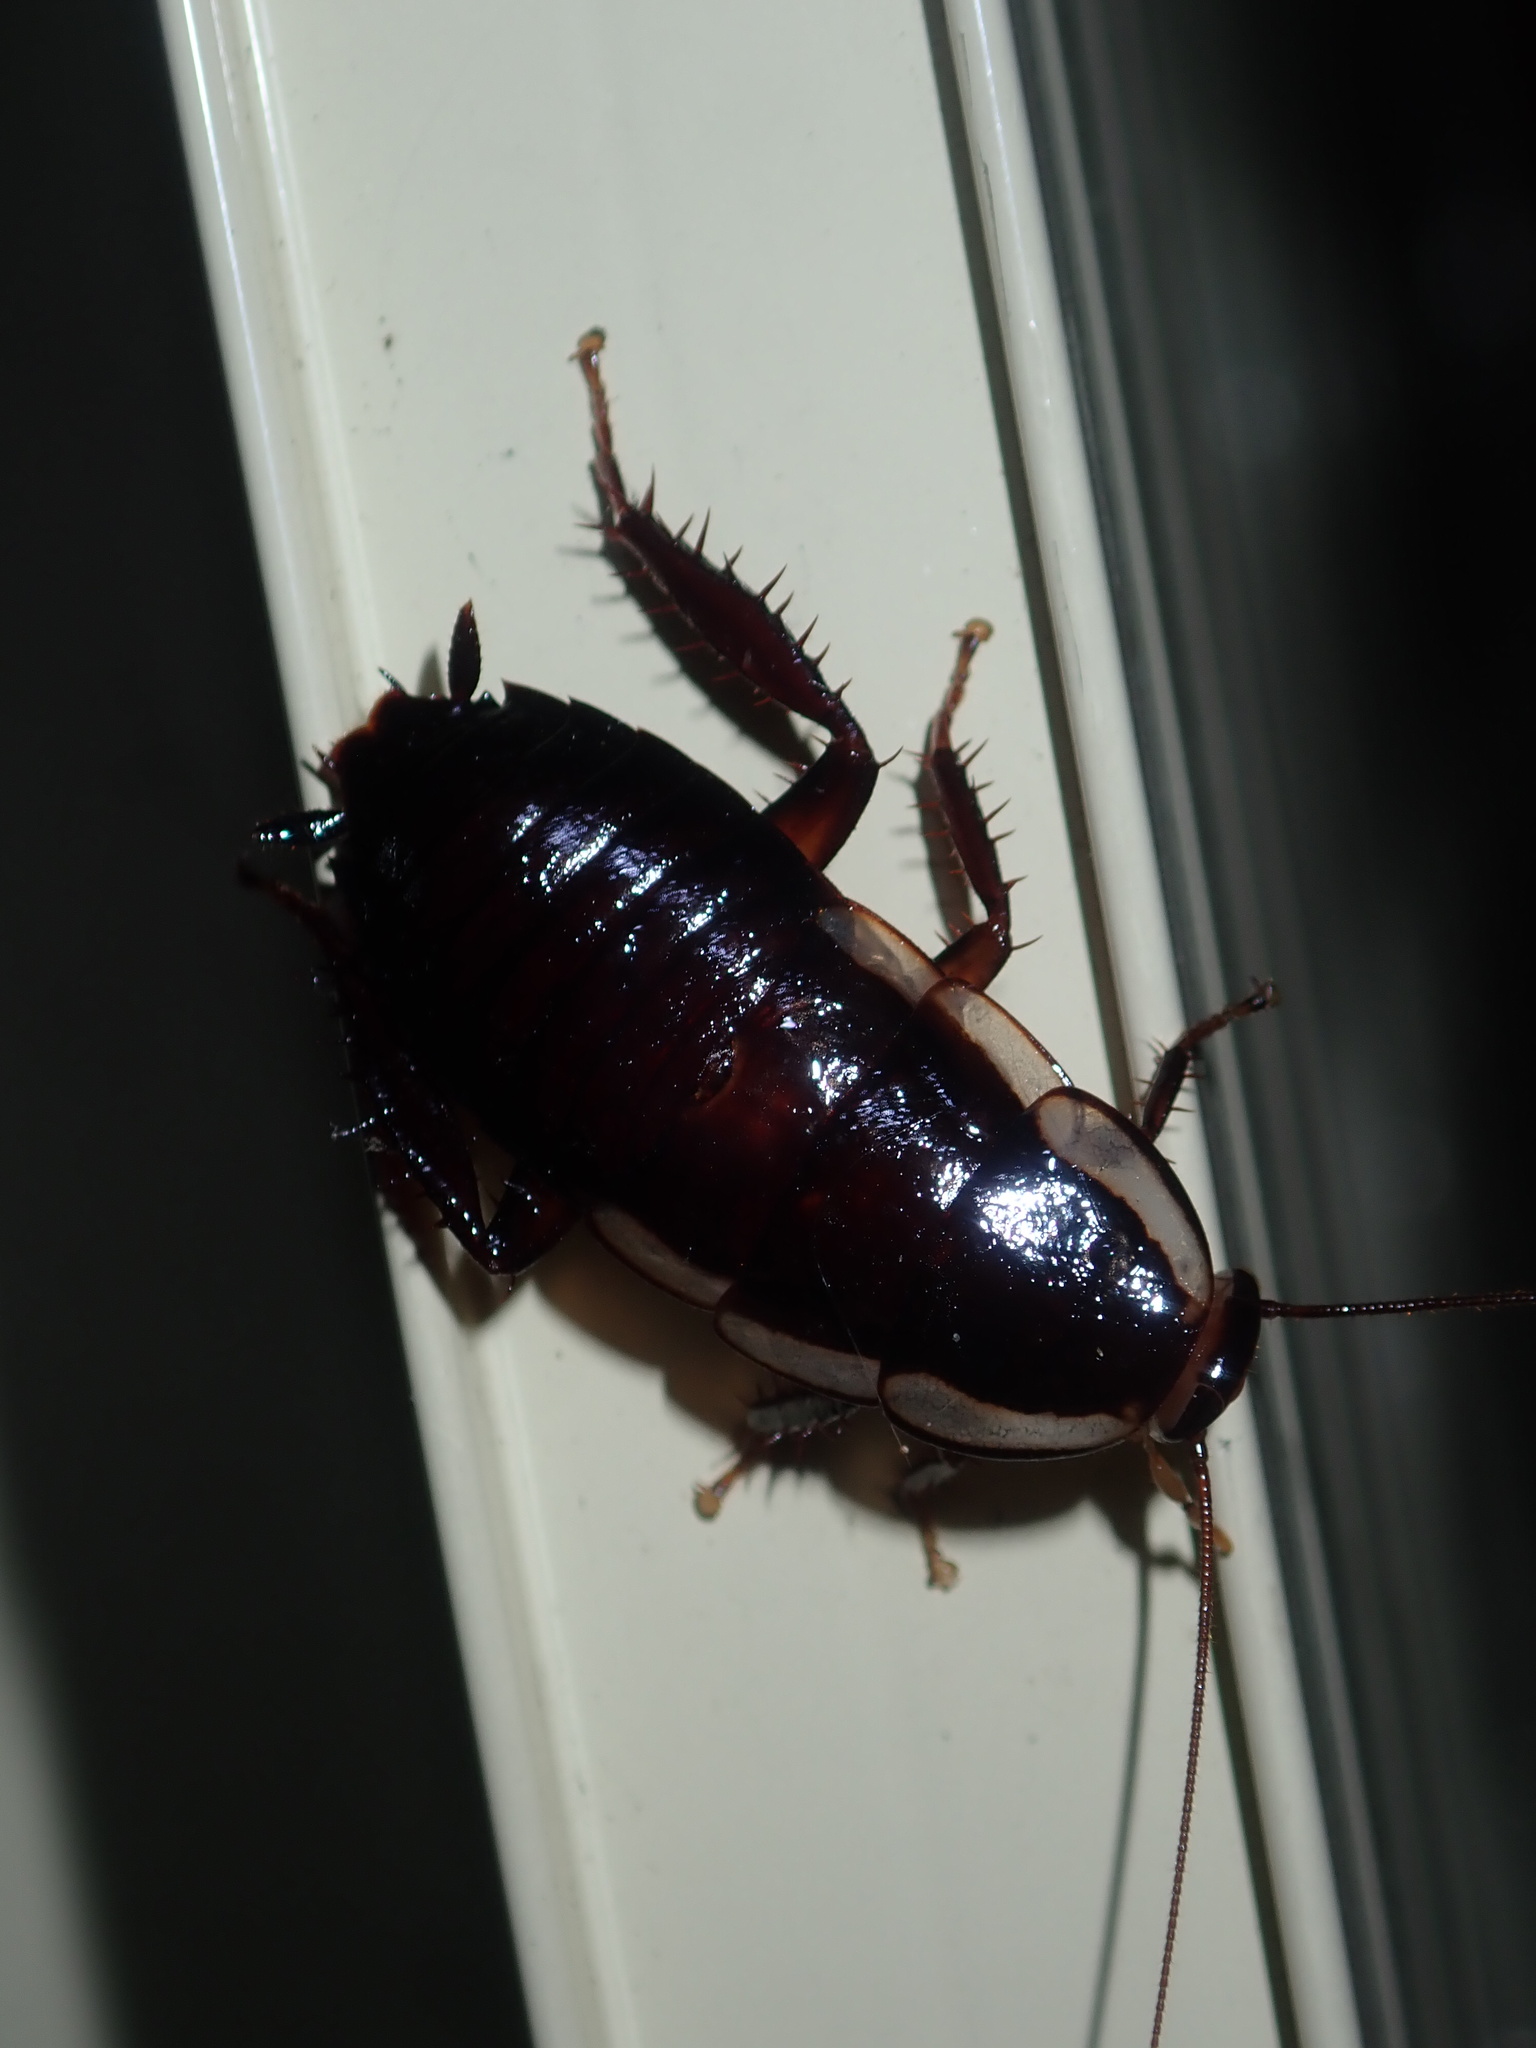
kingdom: Animalia
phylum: Arthropoda
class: Insecta
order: Blattodea
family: Blattidae
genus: Drymaplaneta
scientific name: Drymaplaneta semivitta
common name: Gisborne cockroach
